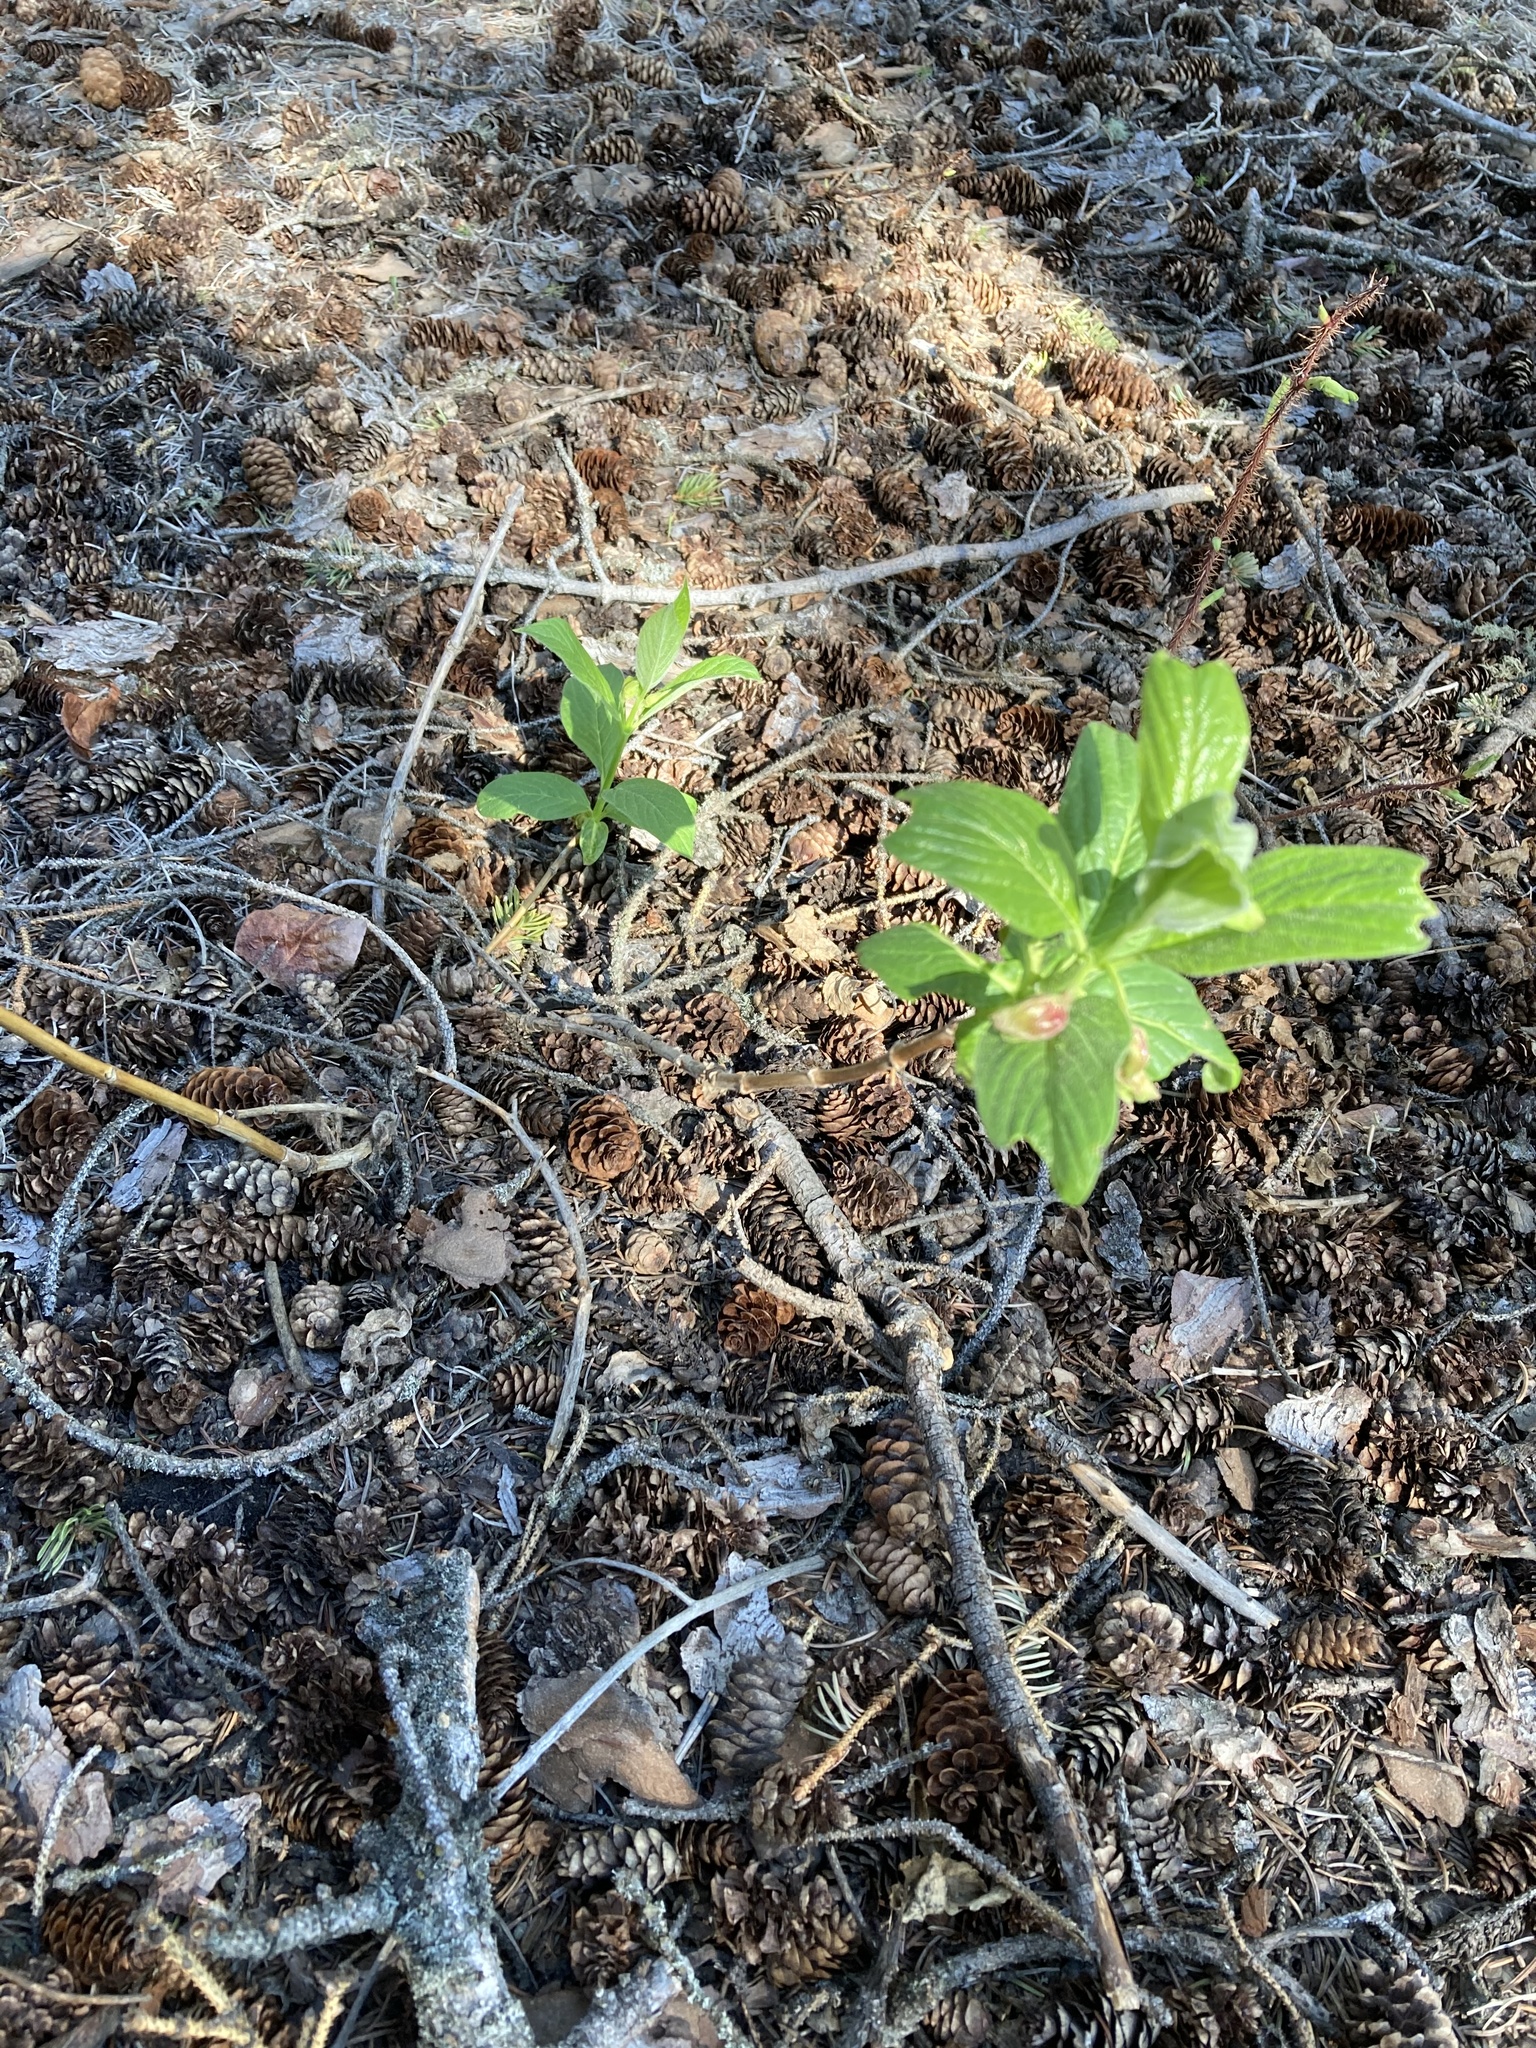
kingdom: Plantae
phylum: Tracheophyta
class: Magnoliopsida
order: Dipsacales
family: Caprifoliaceae
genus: Lonicera
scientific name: Lonicera involucrata
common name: Californian honeysuckle
